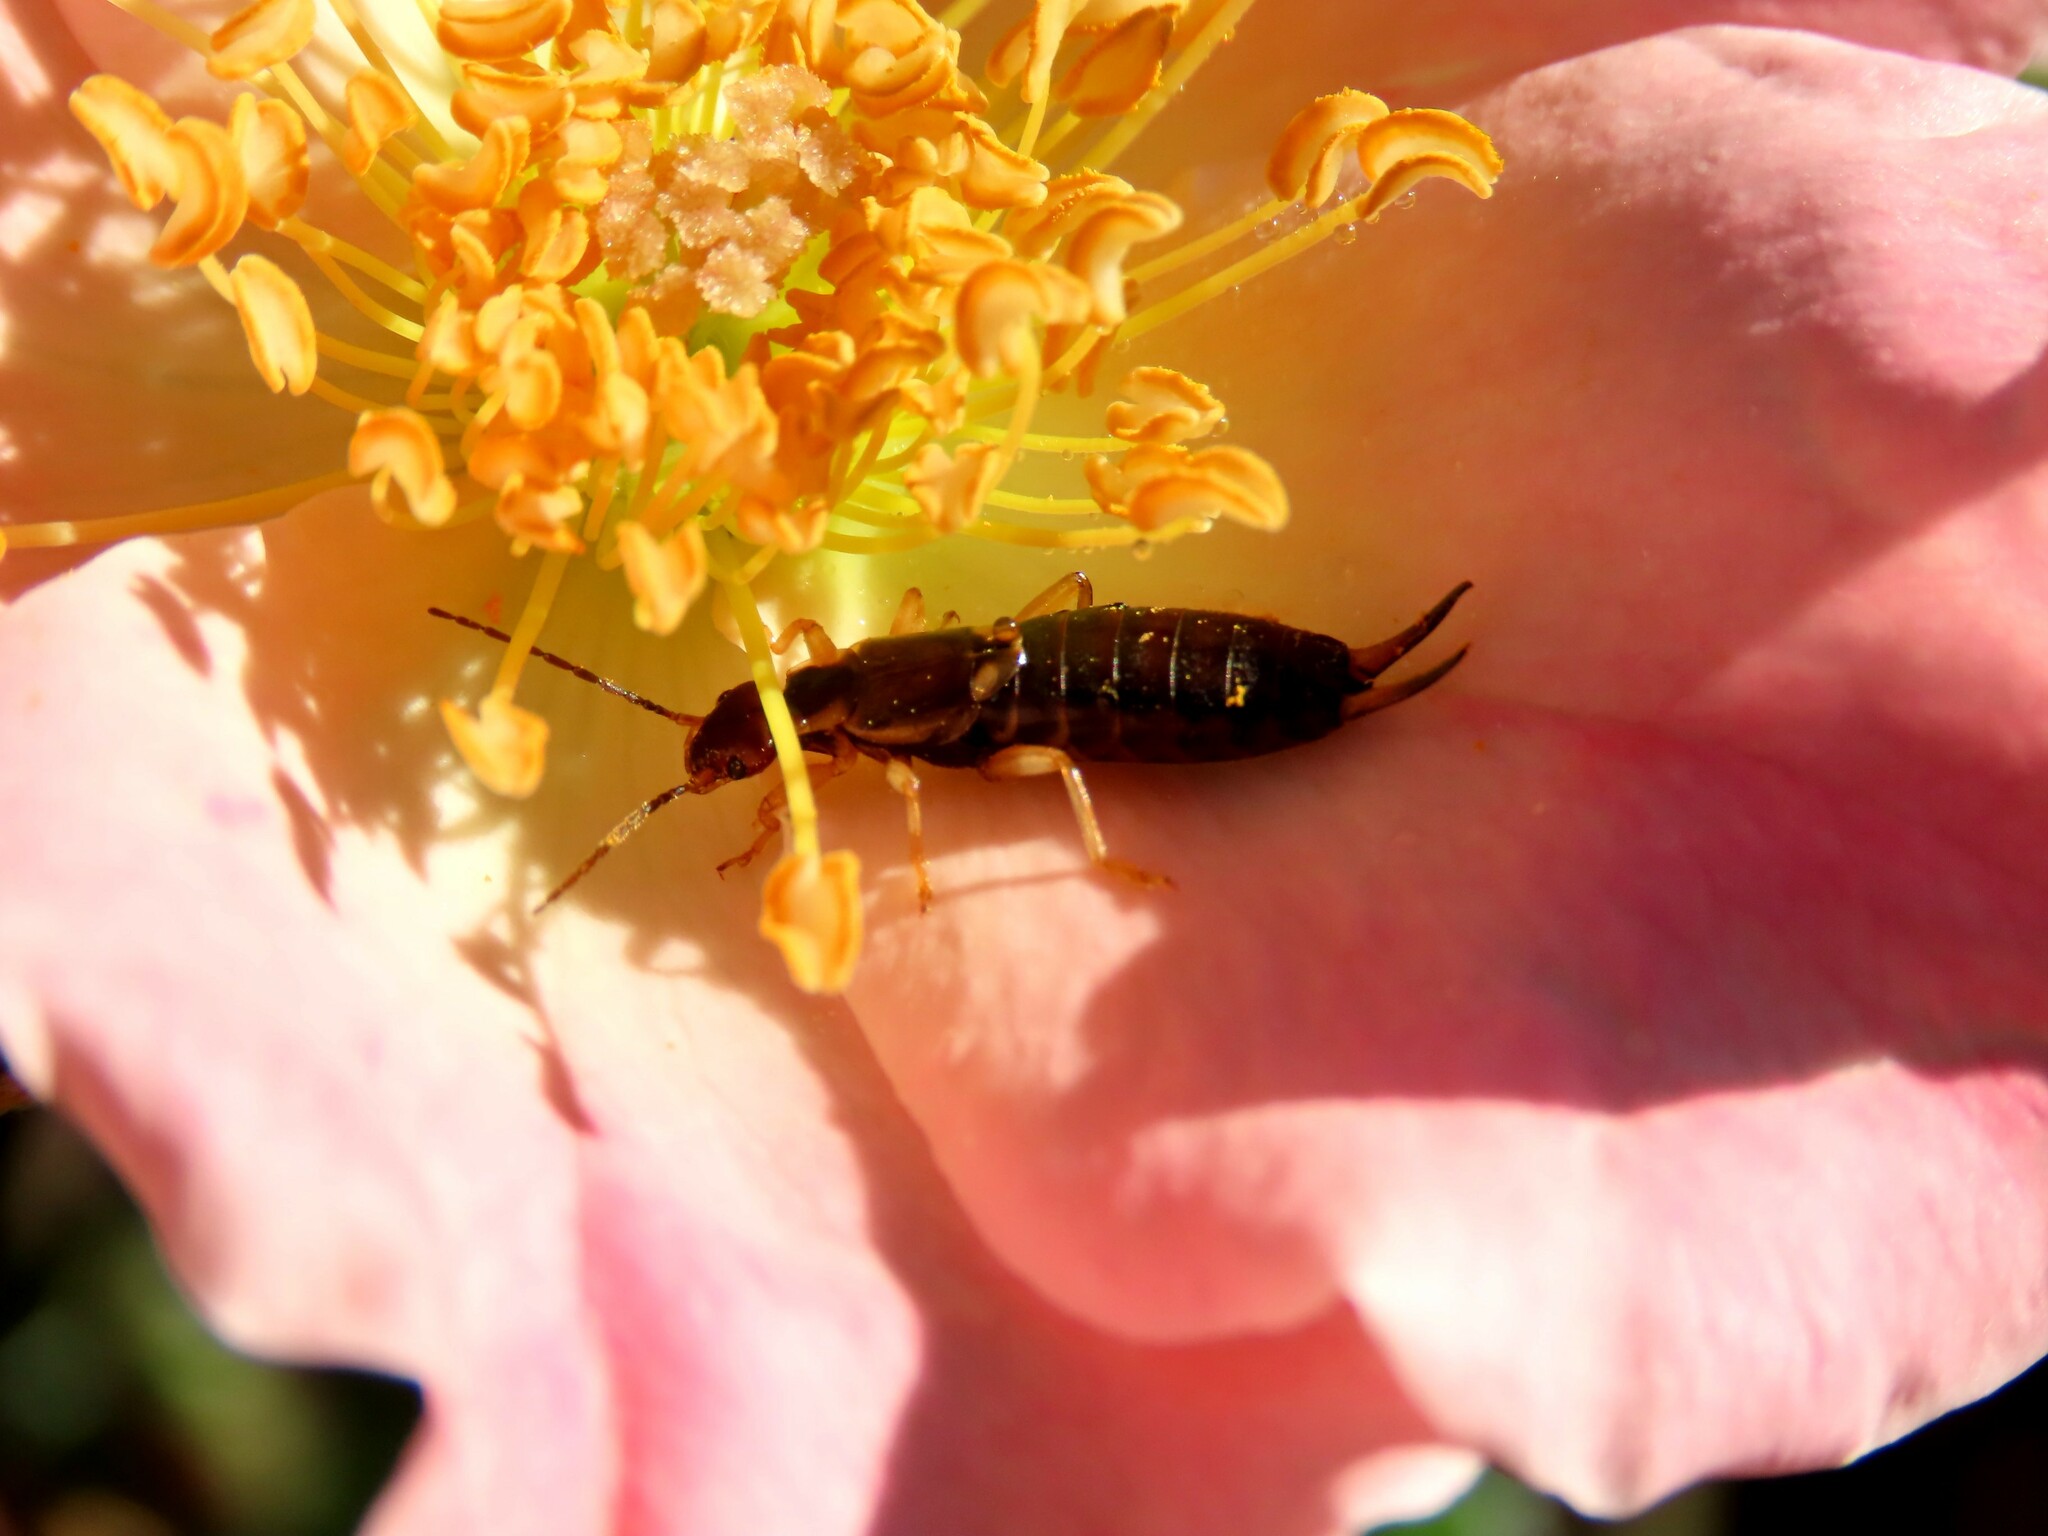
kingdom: Animalia
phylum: Arthropoda
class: Insecta
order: Dermaptera
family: Forficulidae
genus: Forficula
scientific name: Forficula dentata
